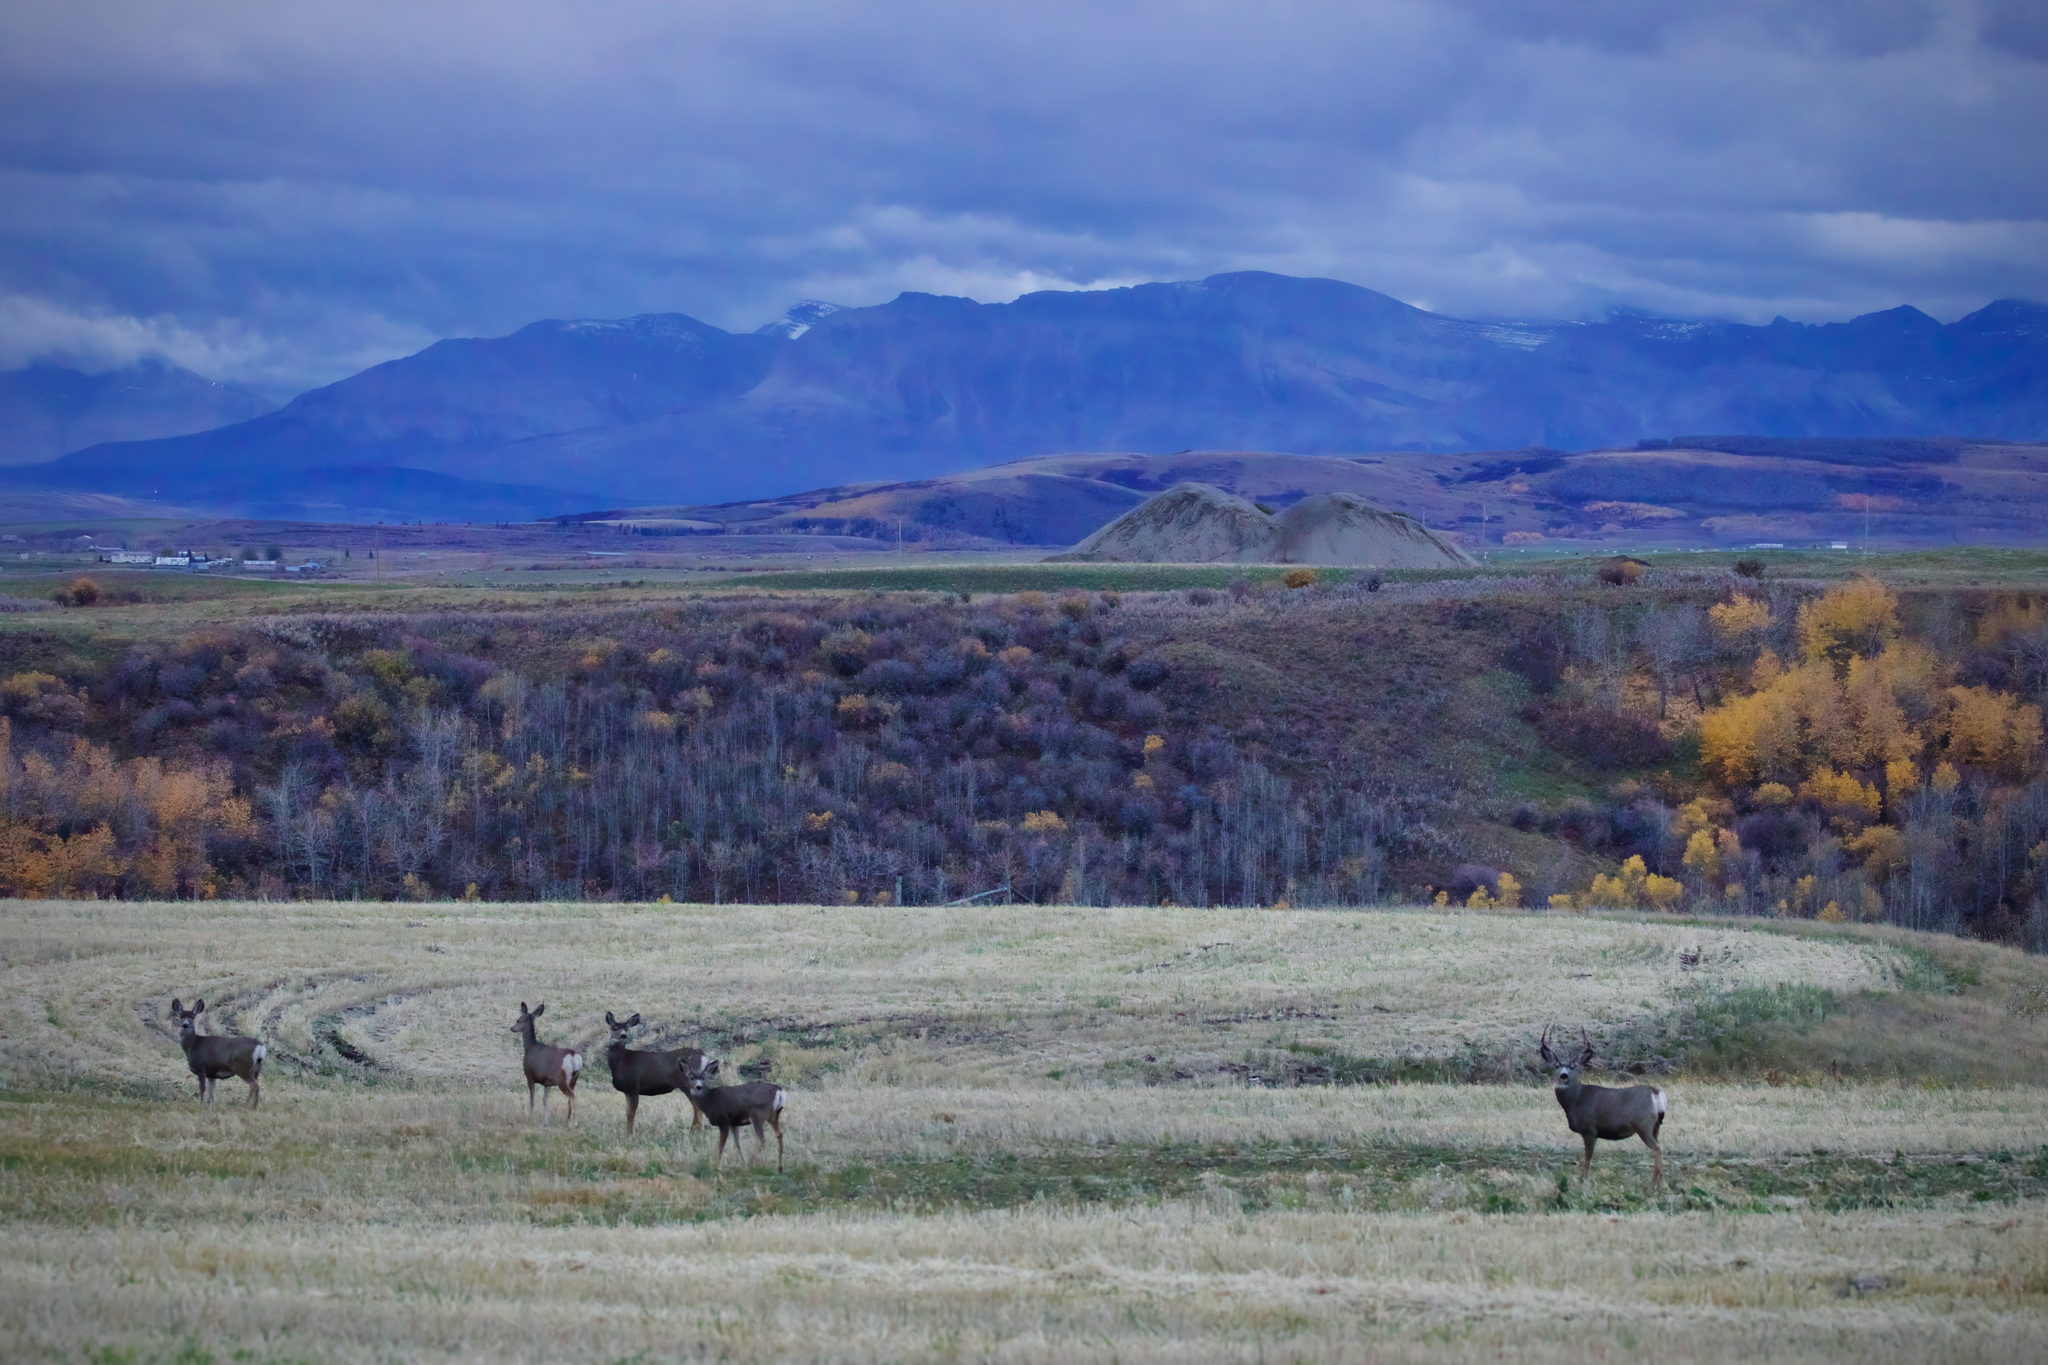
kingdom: Animalia
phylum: Chordata
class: Mammalia
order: Artiodactyla
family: Cervidae
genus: Odocoileus
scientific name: Odocoileus hemionus
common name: Mule deer
